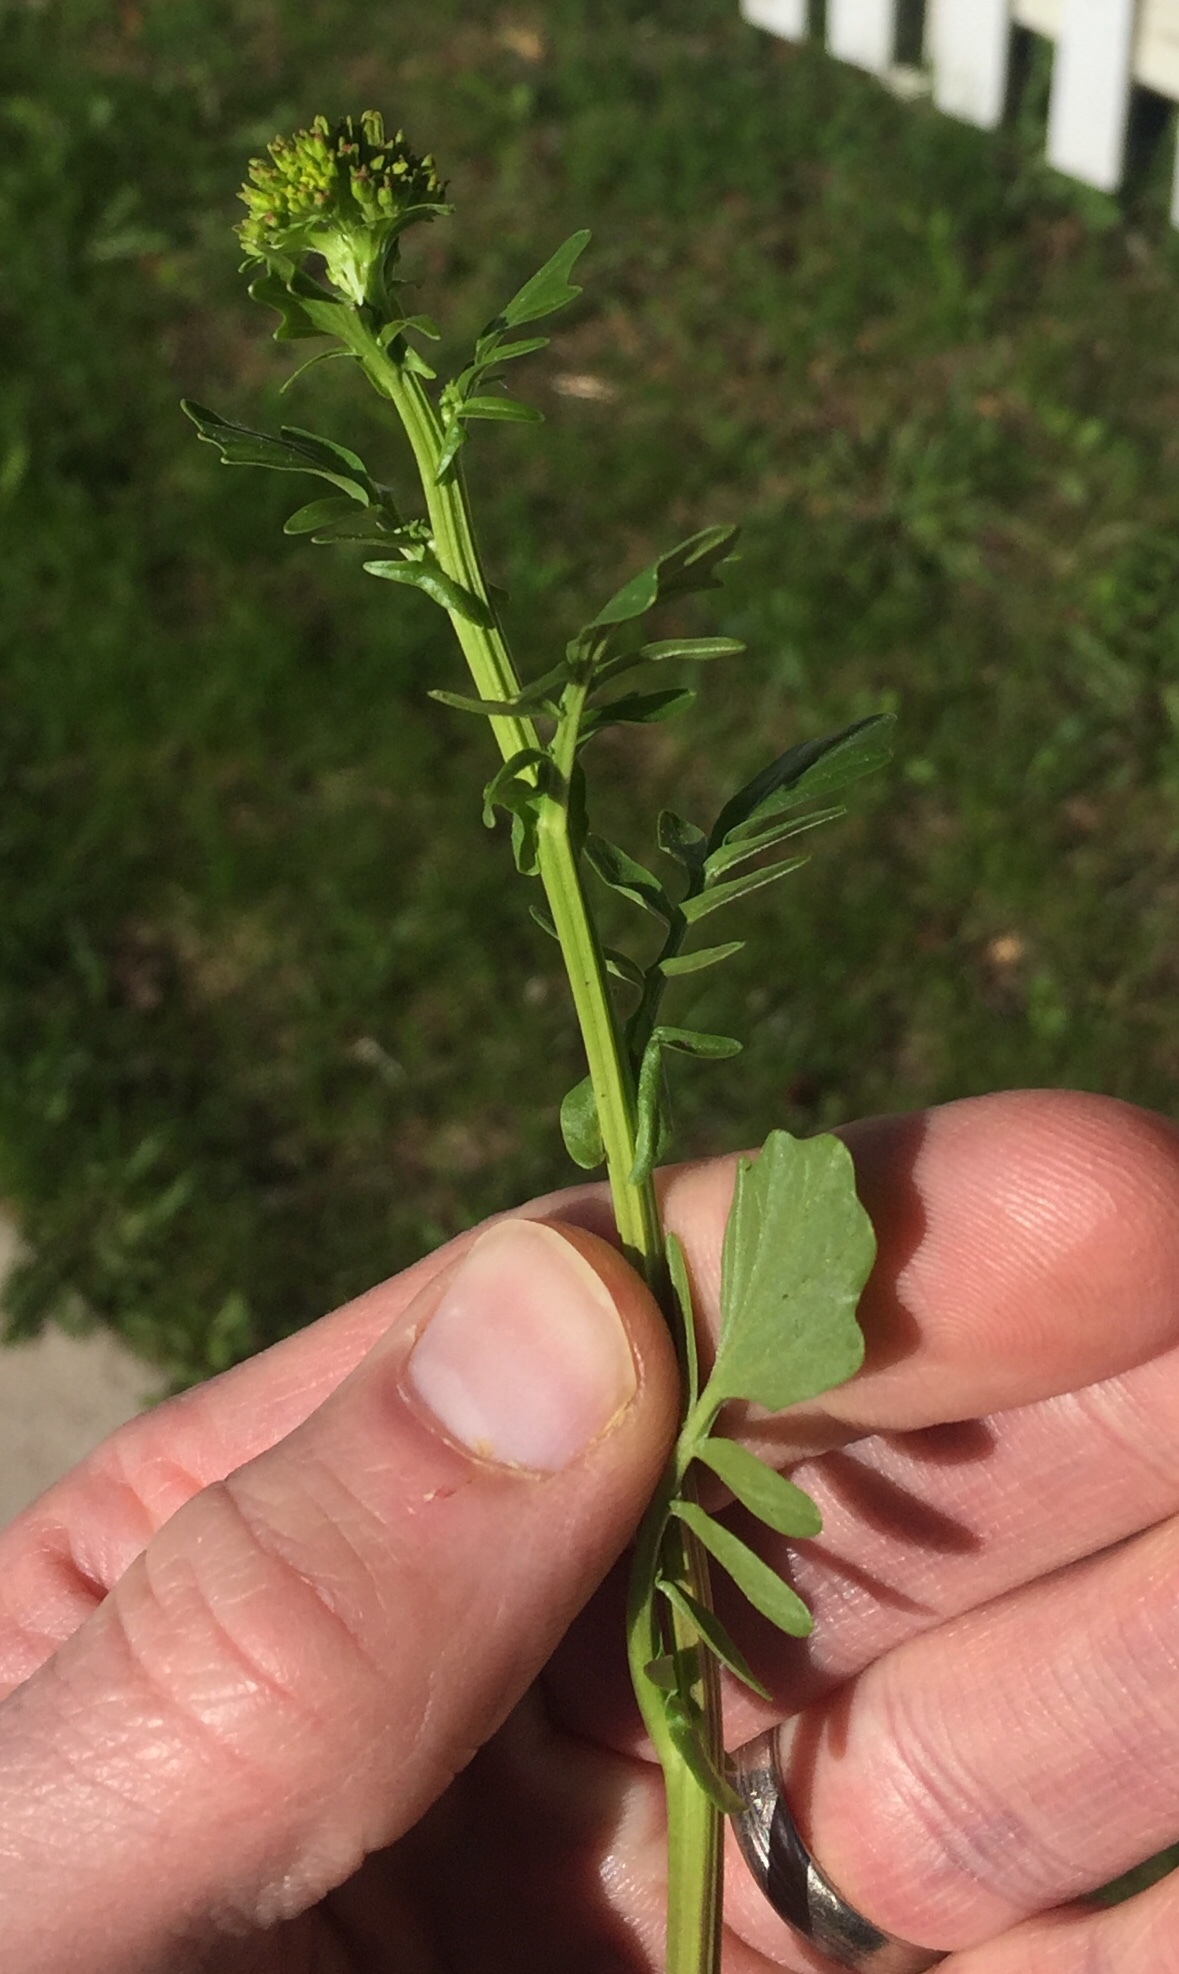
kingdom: Plantae
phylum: Tracheophyta
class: Magnoliopsida
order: Brassicales
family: Brassicaceae
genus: Barbarea
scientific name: Barbarea orthoceras
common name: American wintercress
